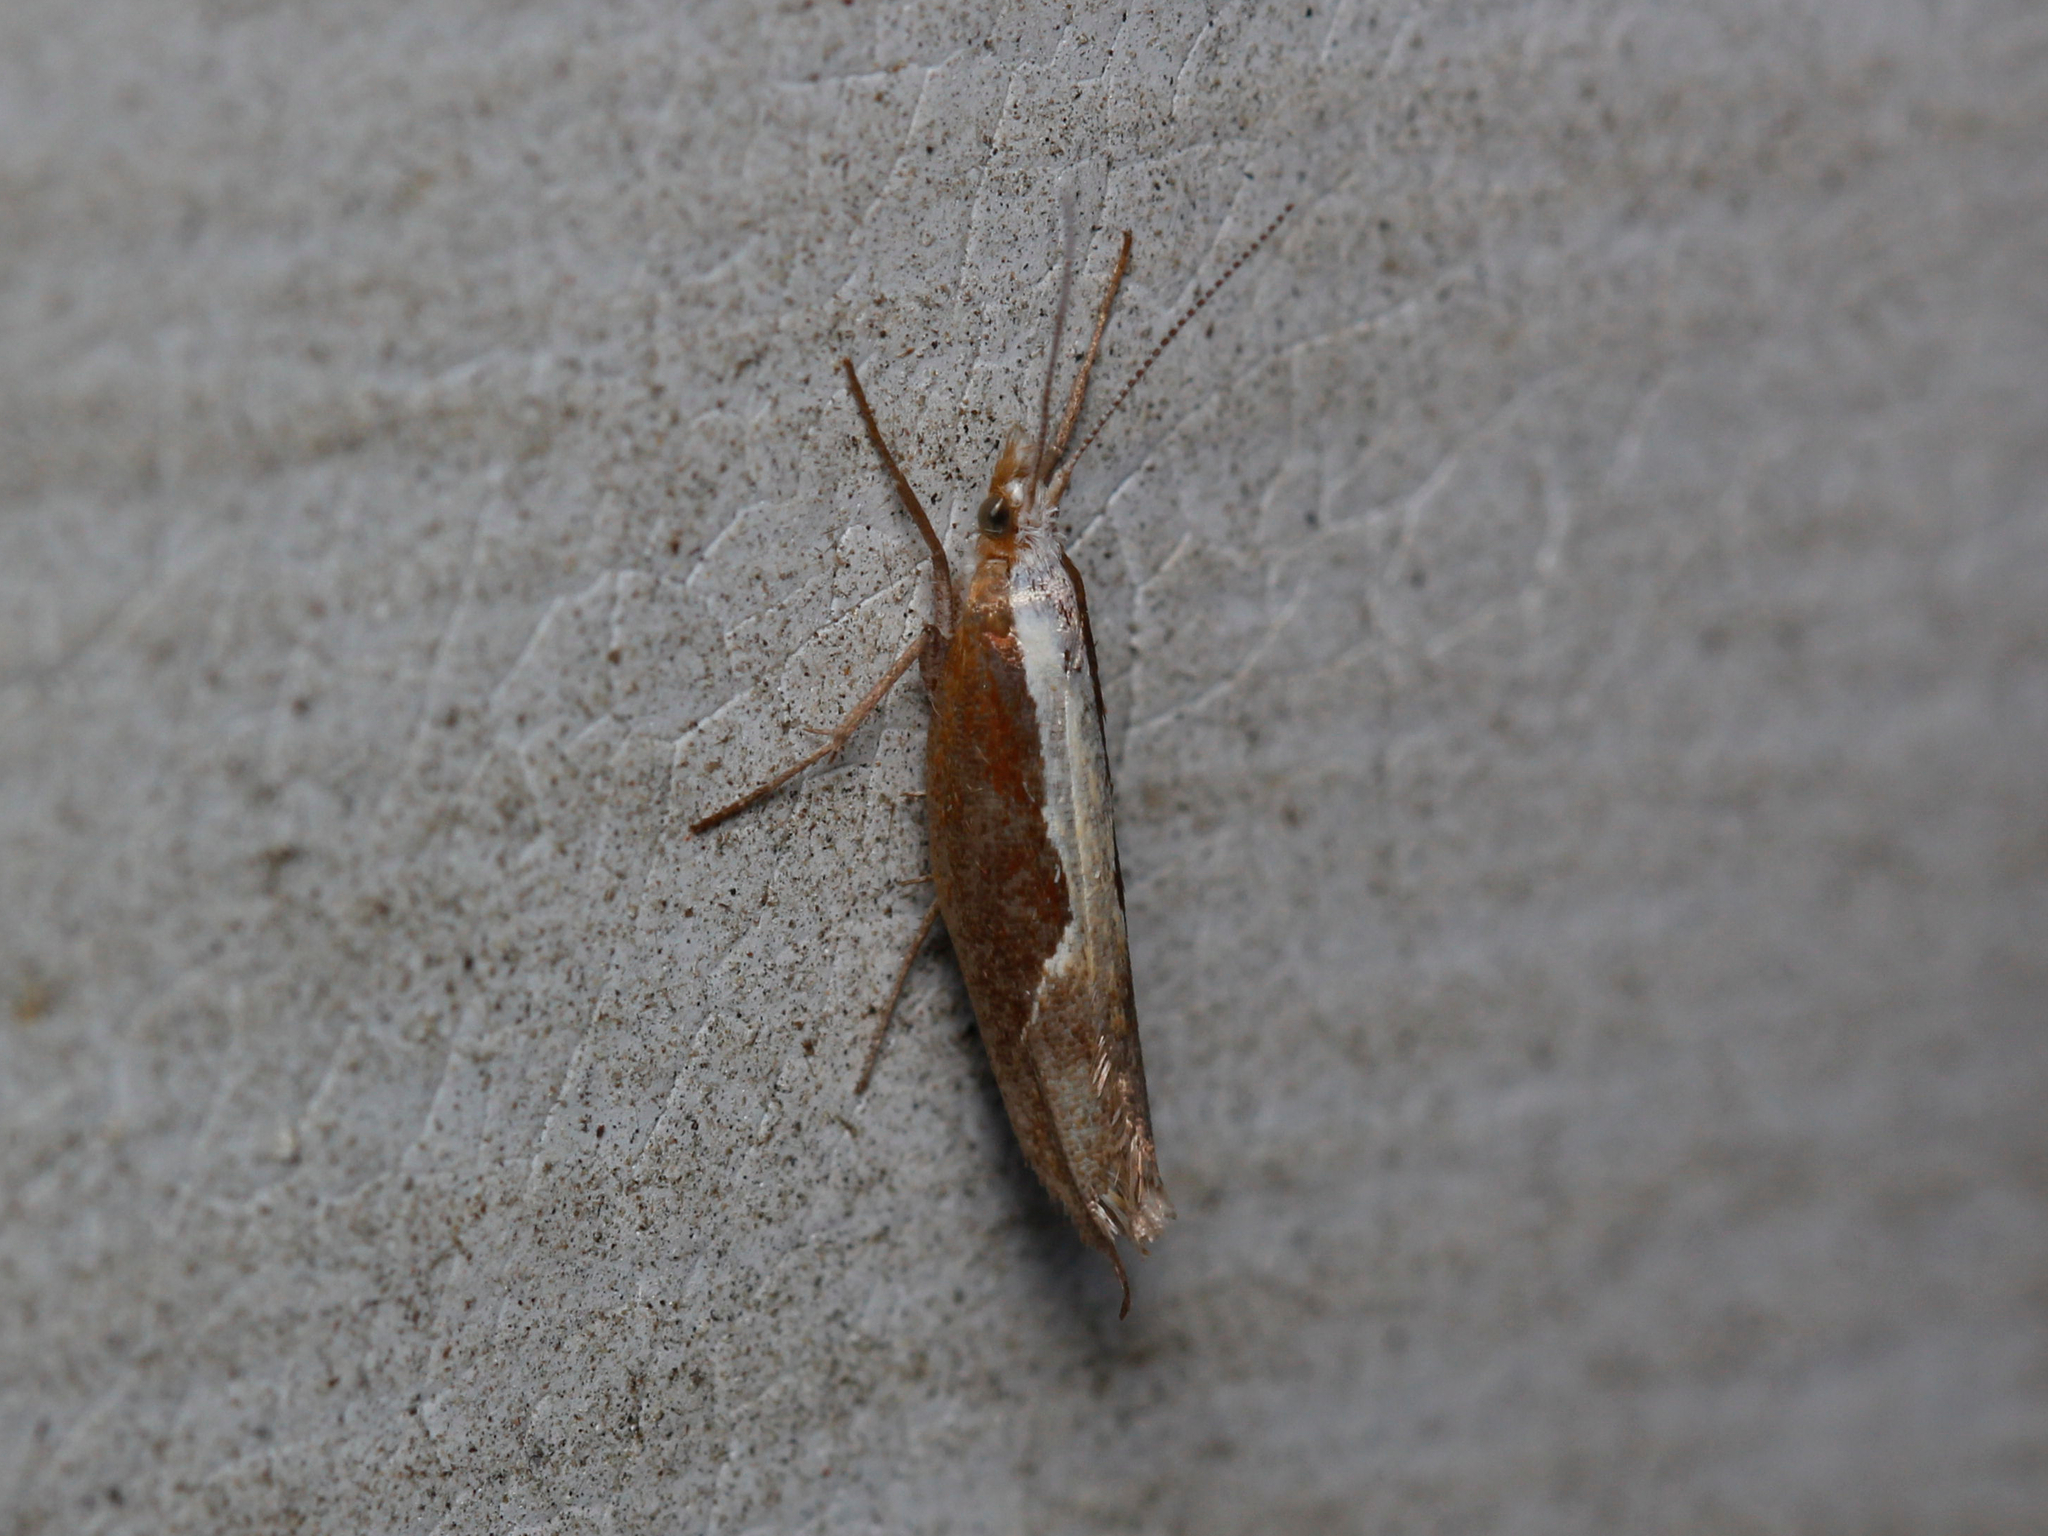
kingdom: Animalia
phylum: Arthropoda
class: Insecta
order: Lepidoptera
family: Ypsolophidae
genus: Ypsolopha
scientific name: Ypsolopha dentella
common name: Honeysuckle moth
